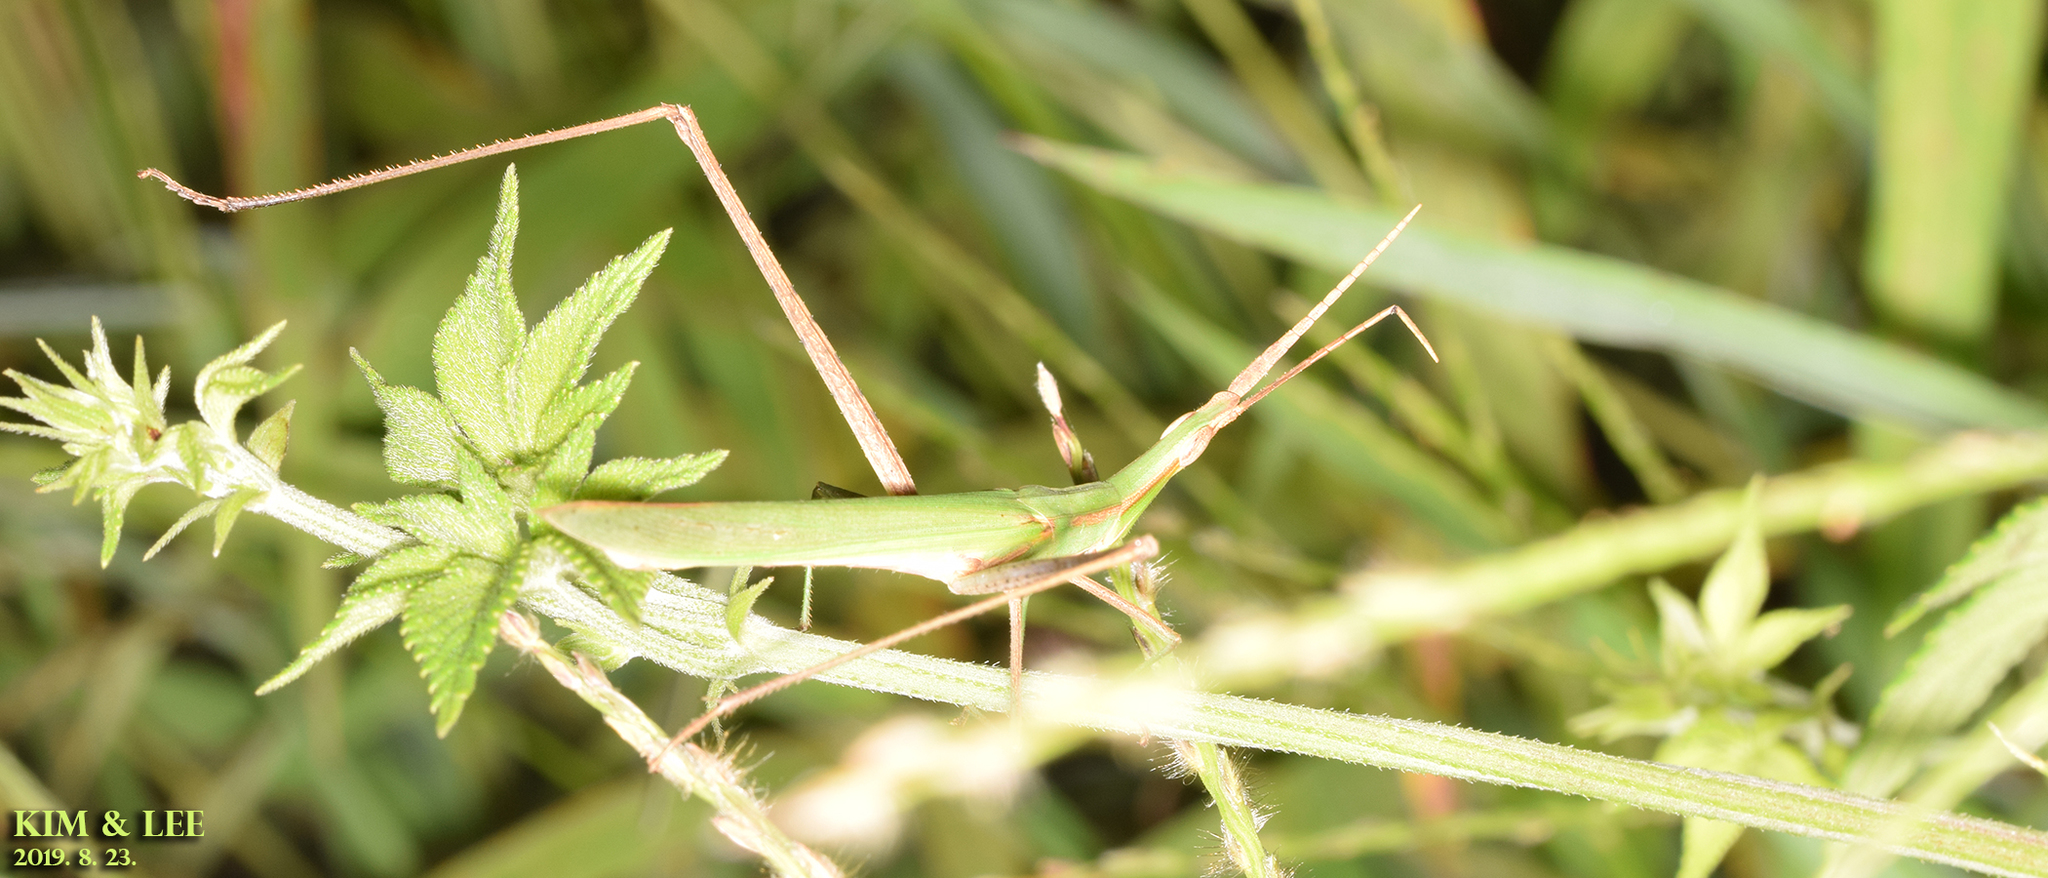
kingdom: Animalia
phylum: Arthropoda
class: Insecta
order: Orthoptera
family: Acrididae
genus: Acrida
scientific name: Acrida cinerea
